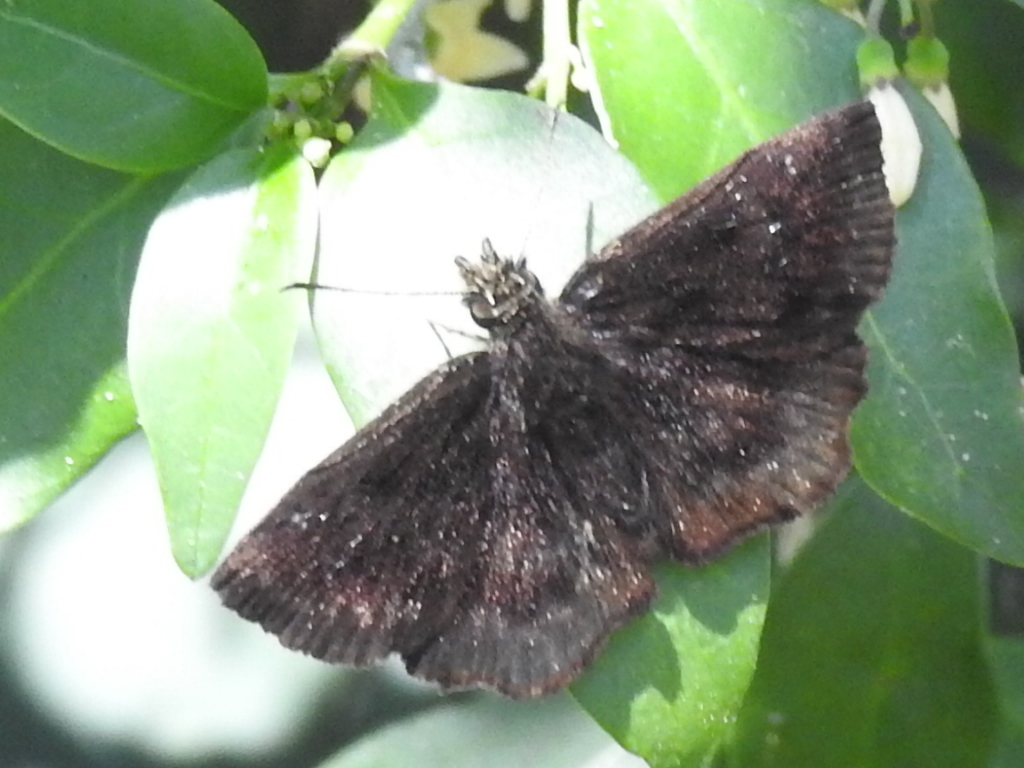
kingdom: Animalia
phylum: Arthropoda
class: Insecta
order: Lepidoptera
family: Hesperiidae
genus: Staphylus
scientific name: Staphylus mazans
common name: Mazans scallopwing
